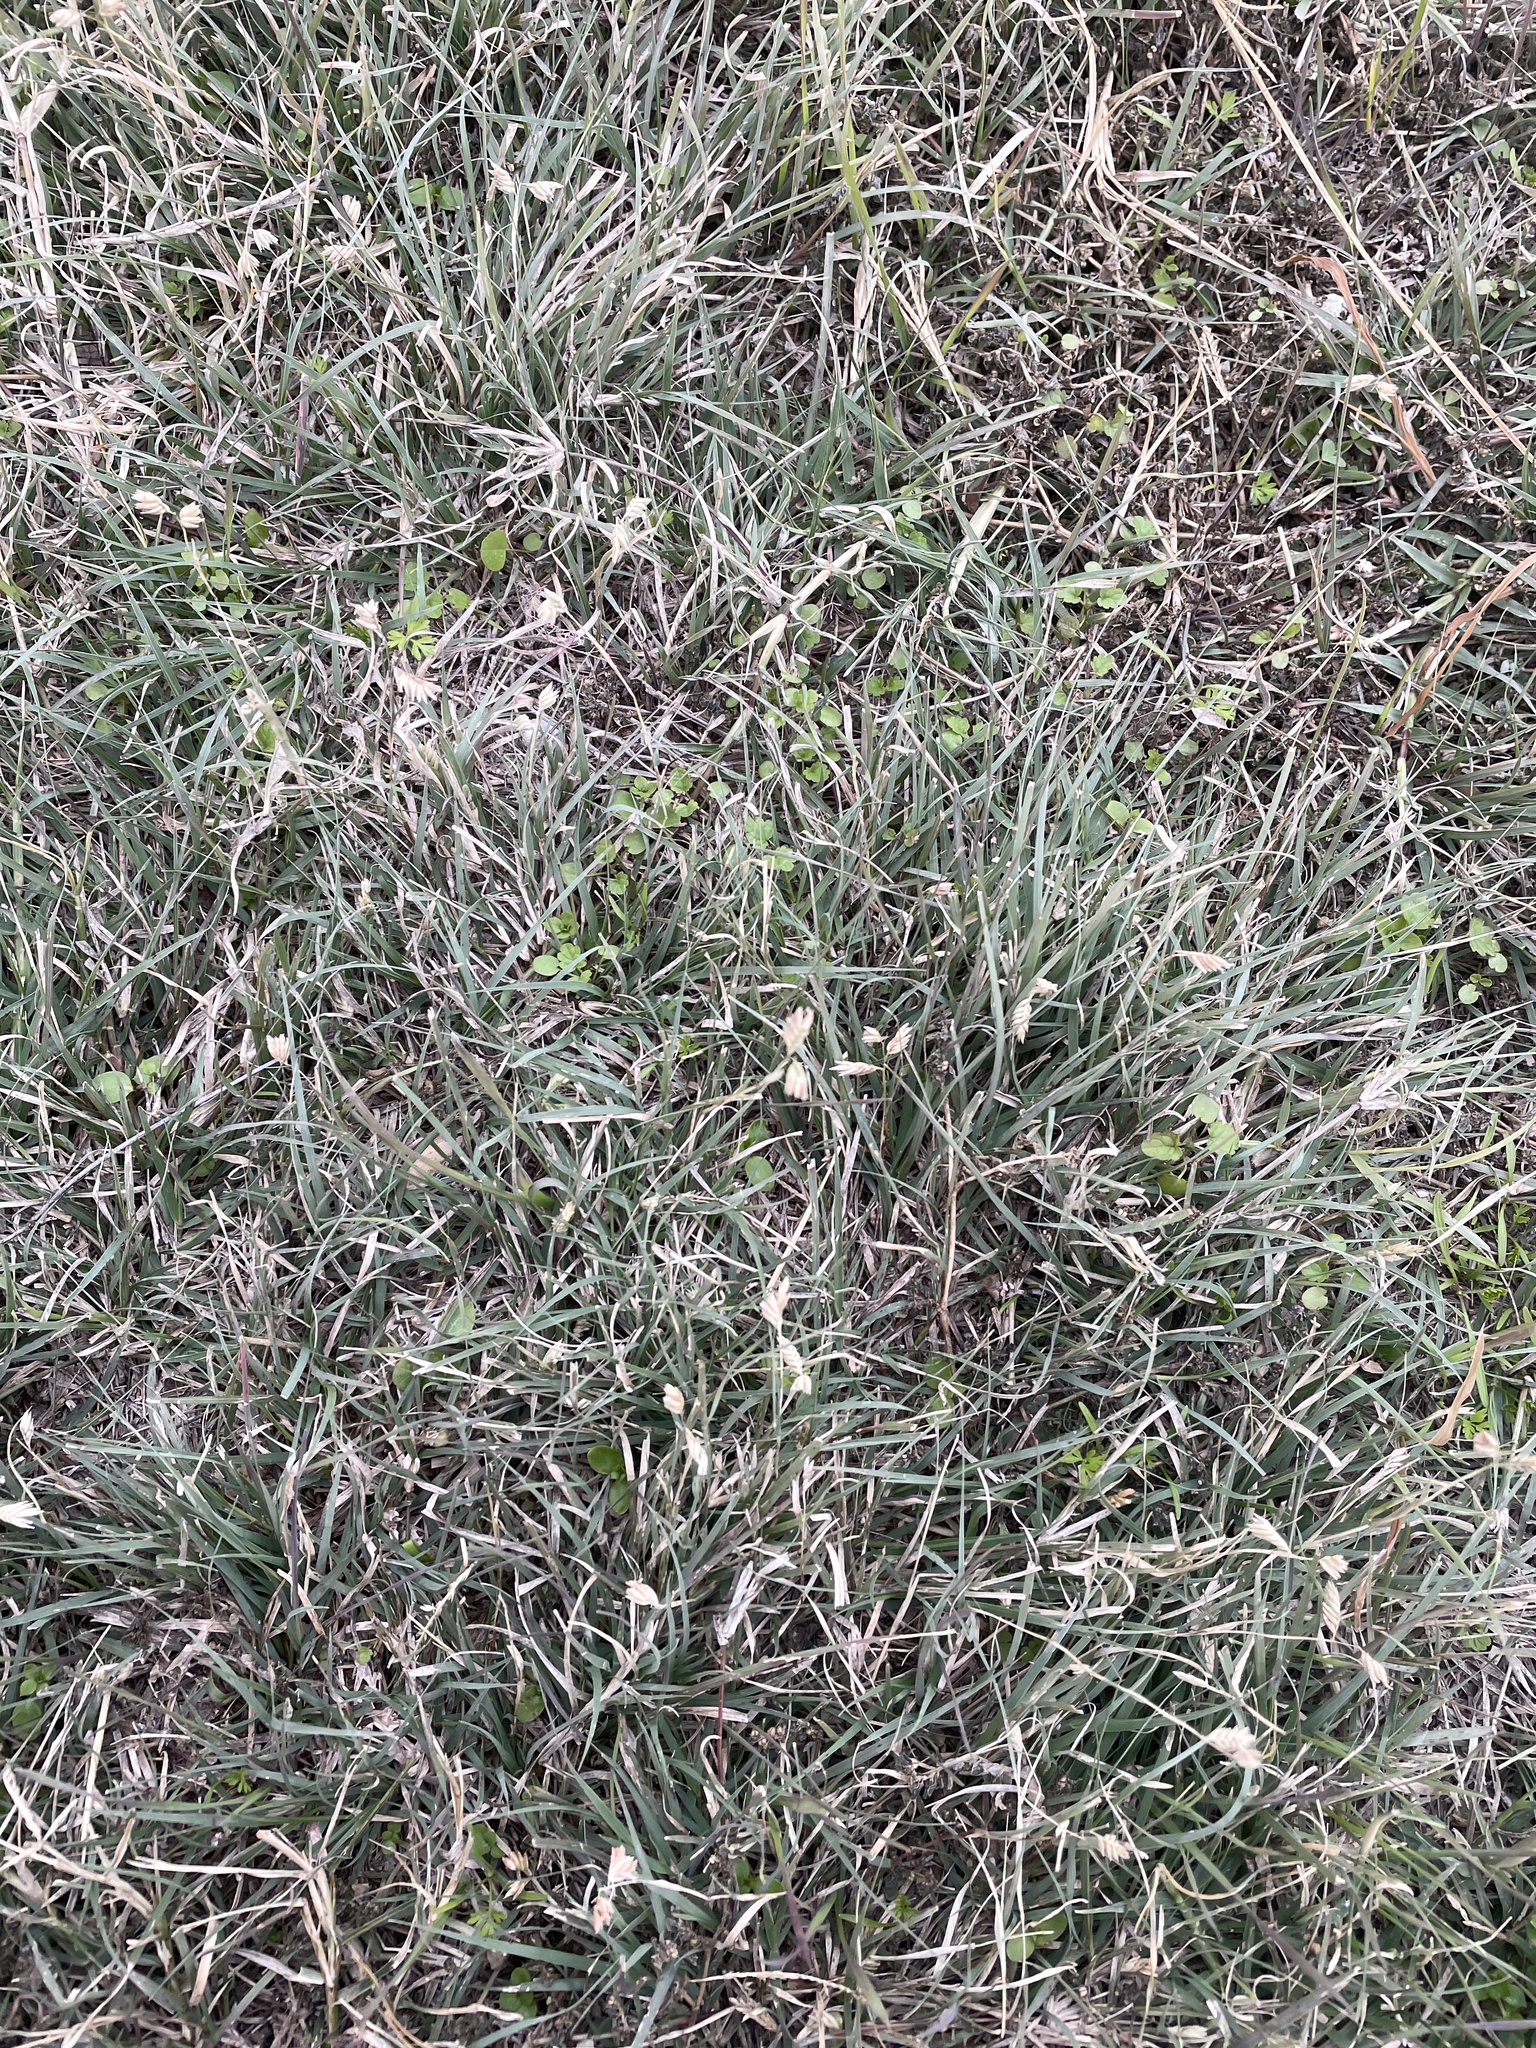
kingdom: Plantae
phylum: Tracheophyta
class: Liliopsida
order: Poales
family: Poaceae
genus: Bouteloua
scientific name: Bouteloua dactyloides
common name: Buffalo grass
